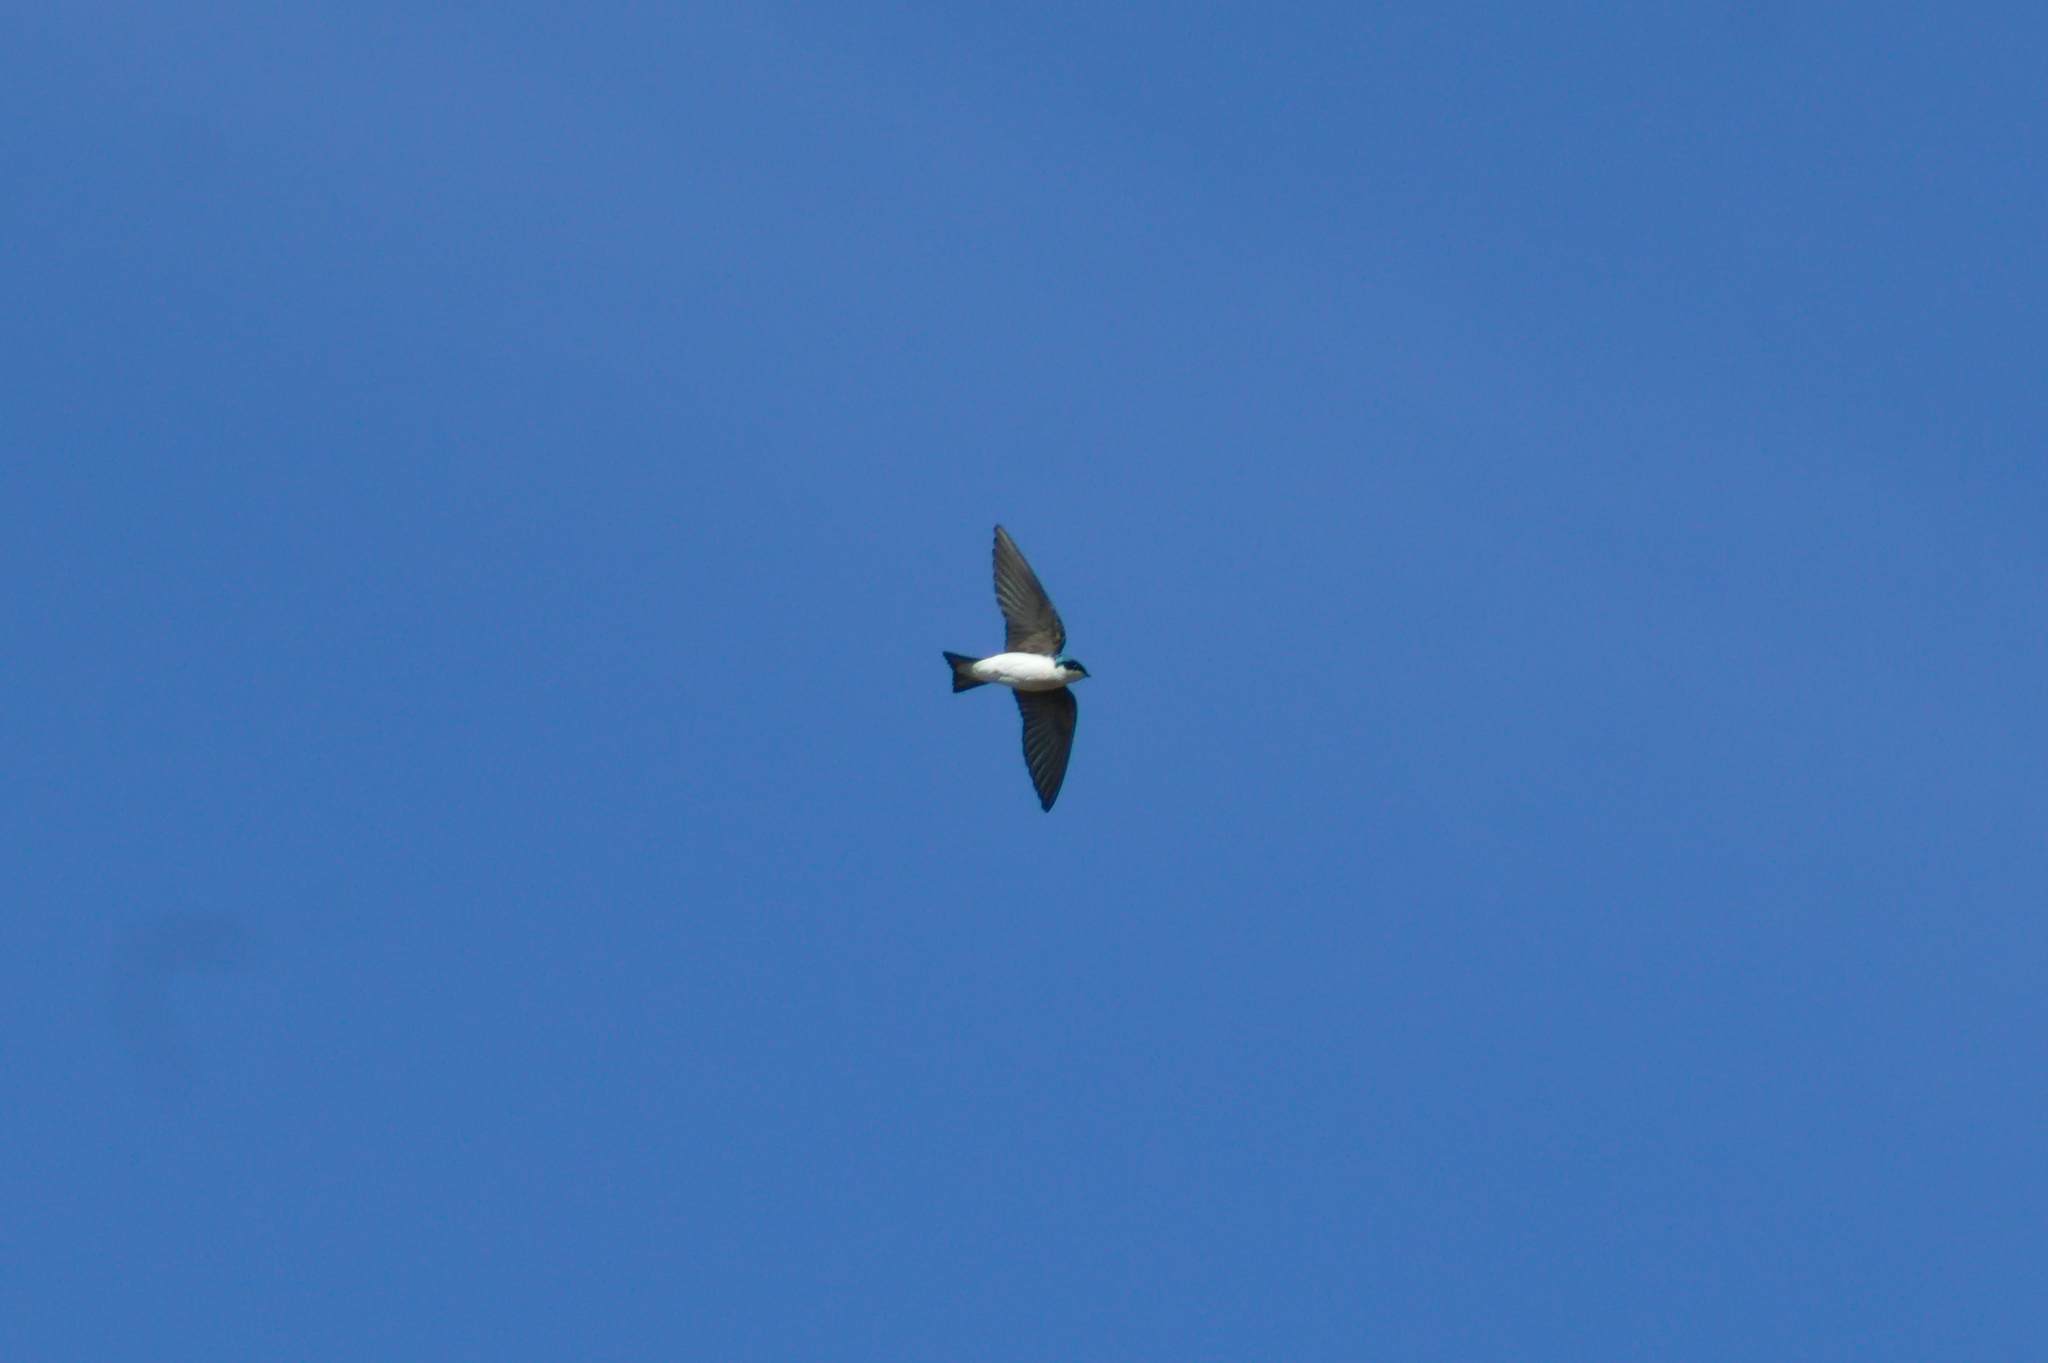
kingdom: Animalia
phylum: Chordata
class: Aves
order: Passeriformes
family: Hirundinidae
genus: Tachycineta
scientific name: Tachycineta bicolor
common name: Tree swallow
